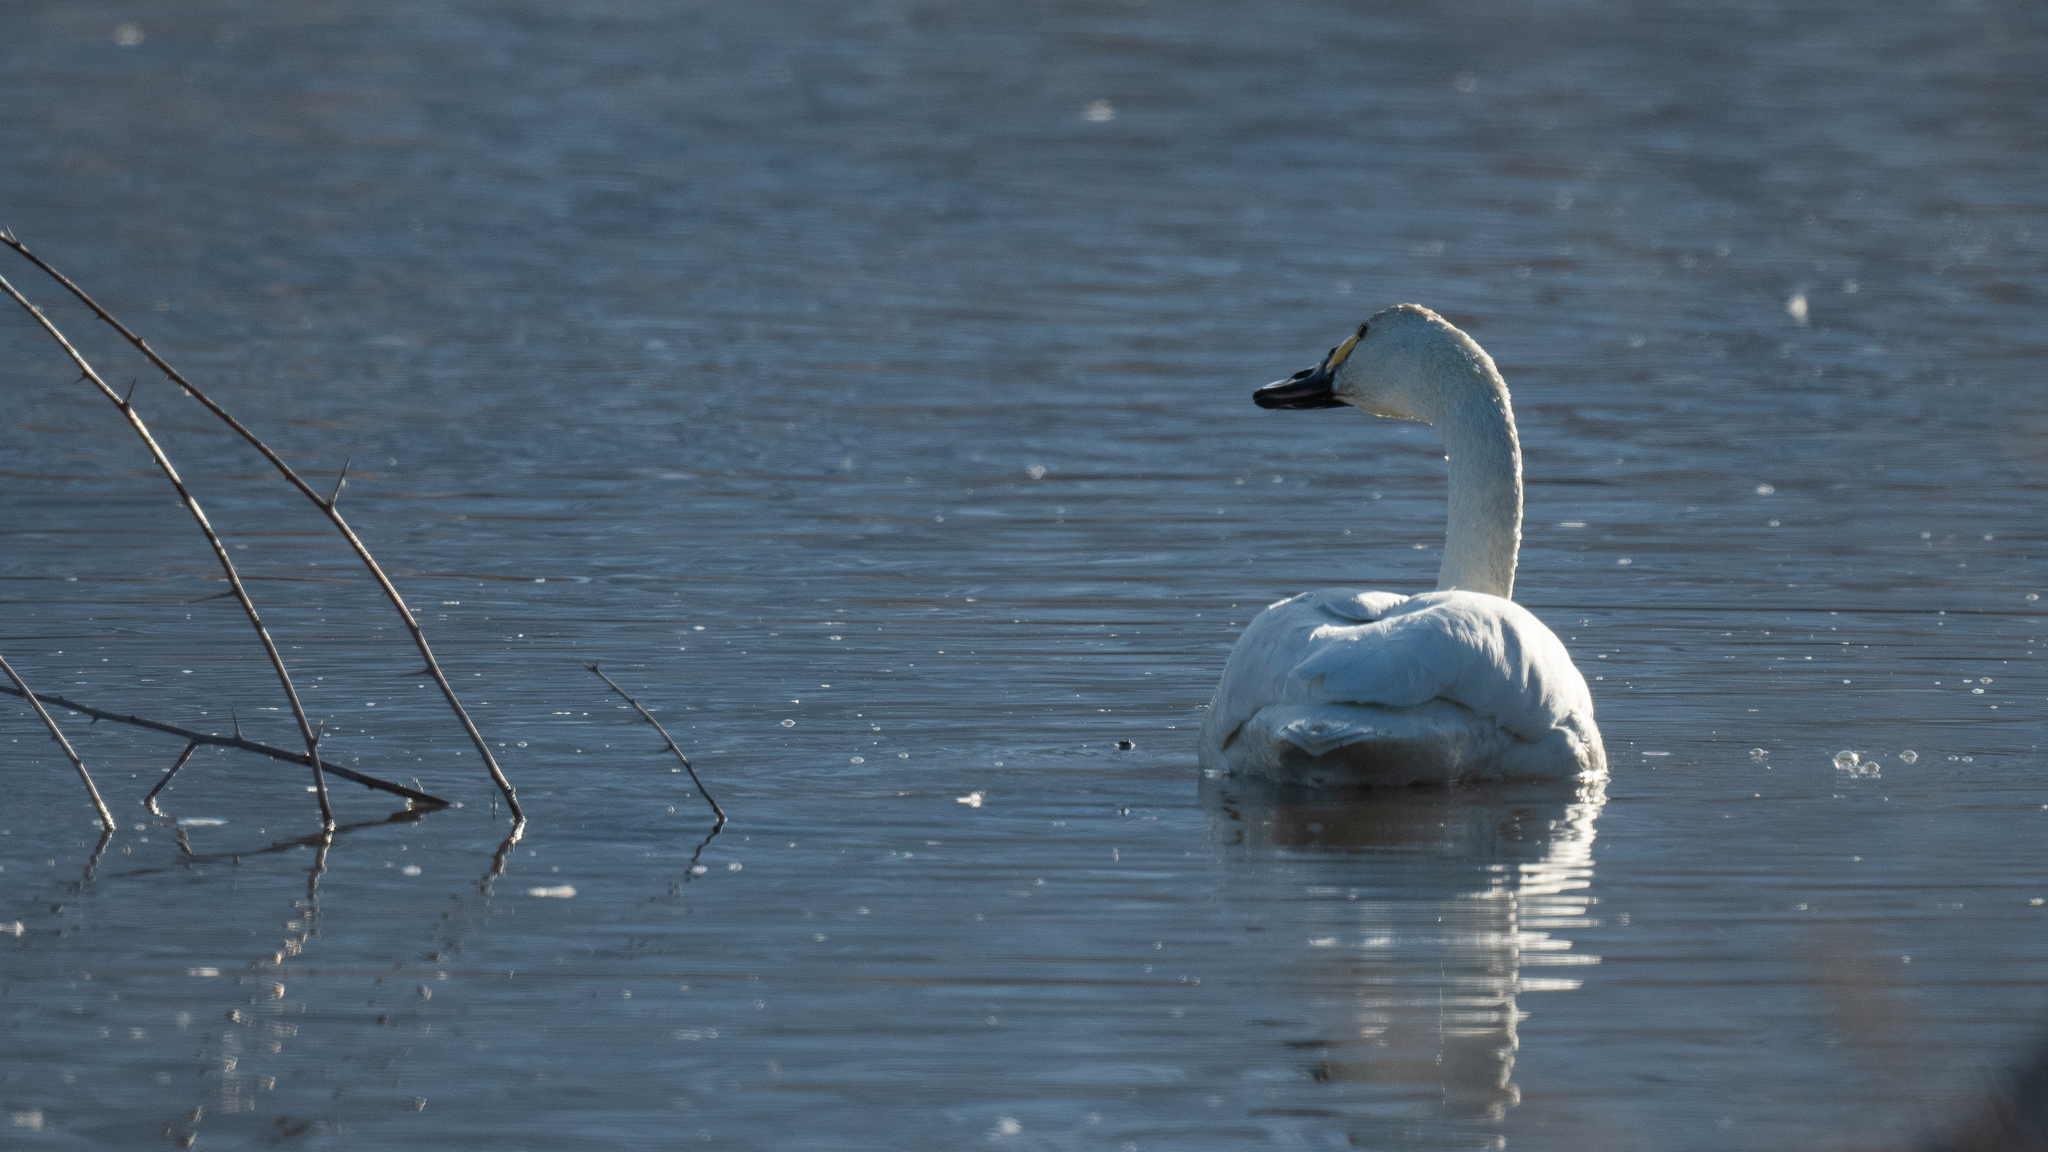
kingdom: Animalia
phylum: Chordata
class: Aves
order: Anseriformes
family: Anatidae
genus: Cygnus
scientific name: Cygnus columbianus
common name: Tundra swan
